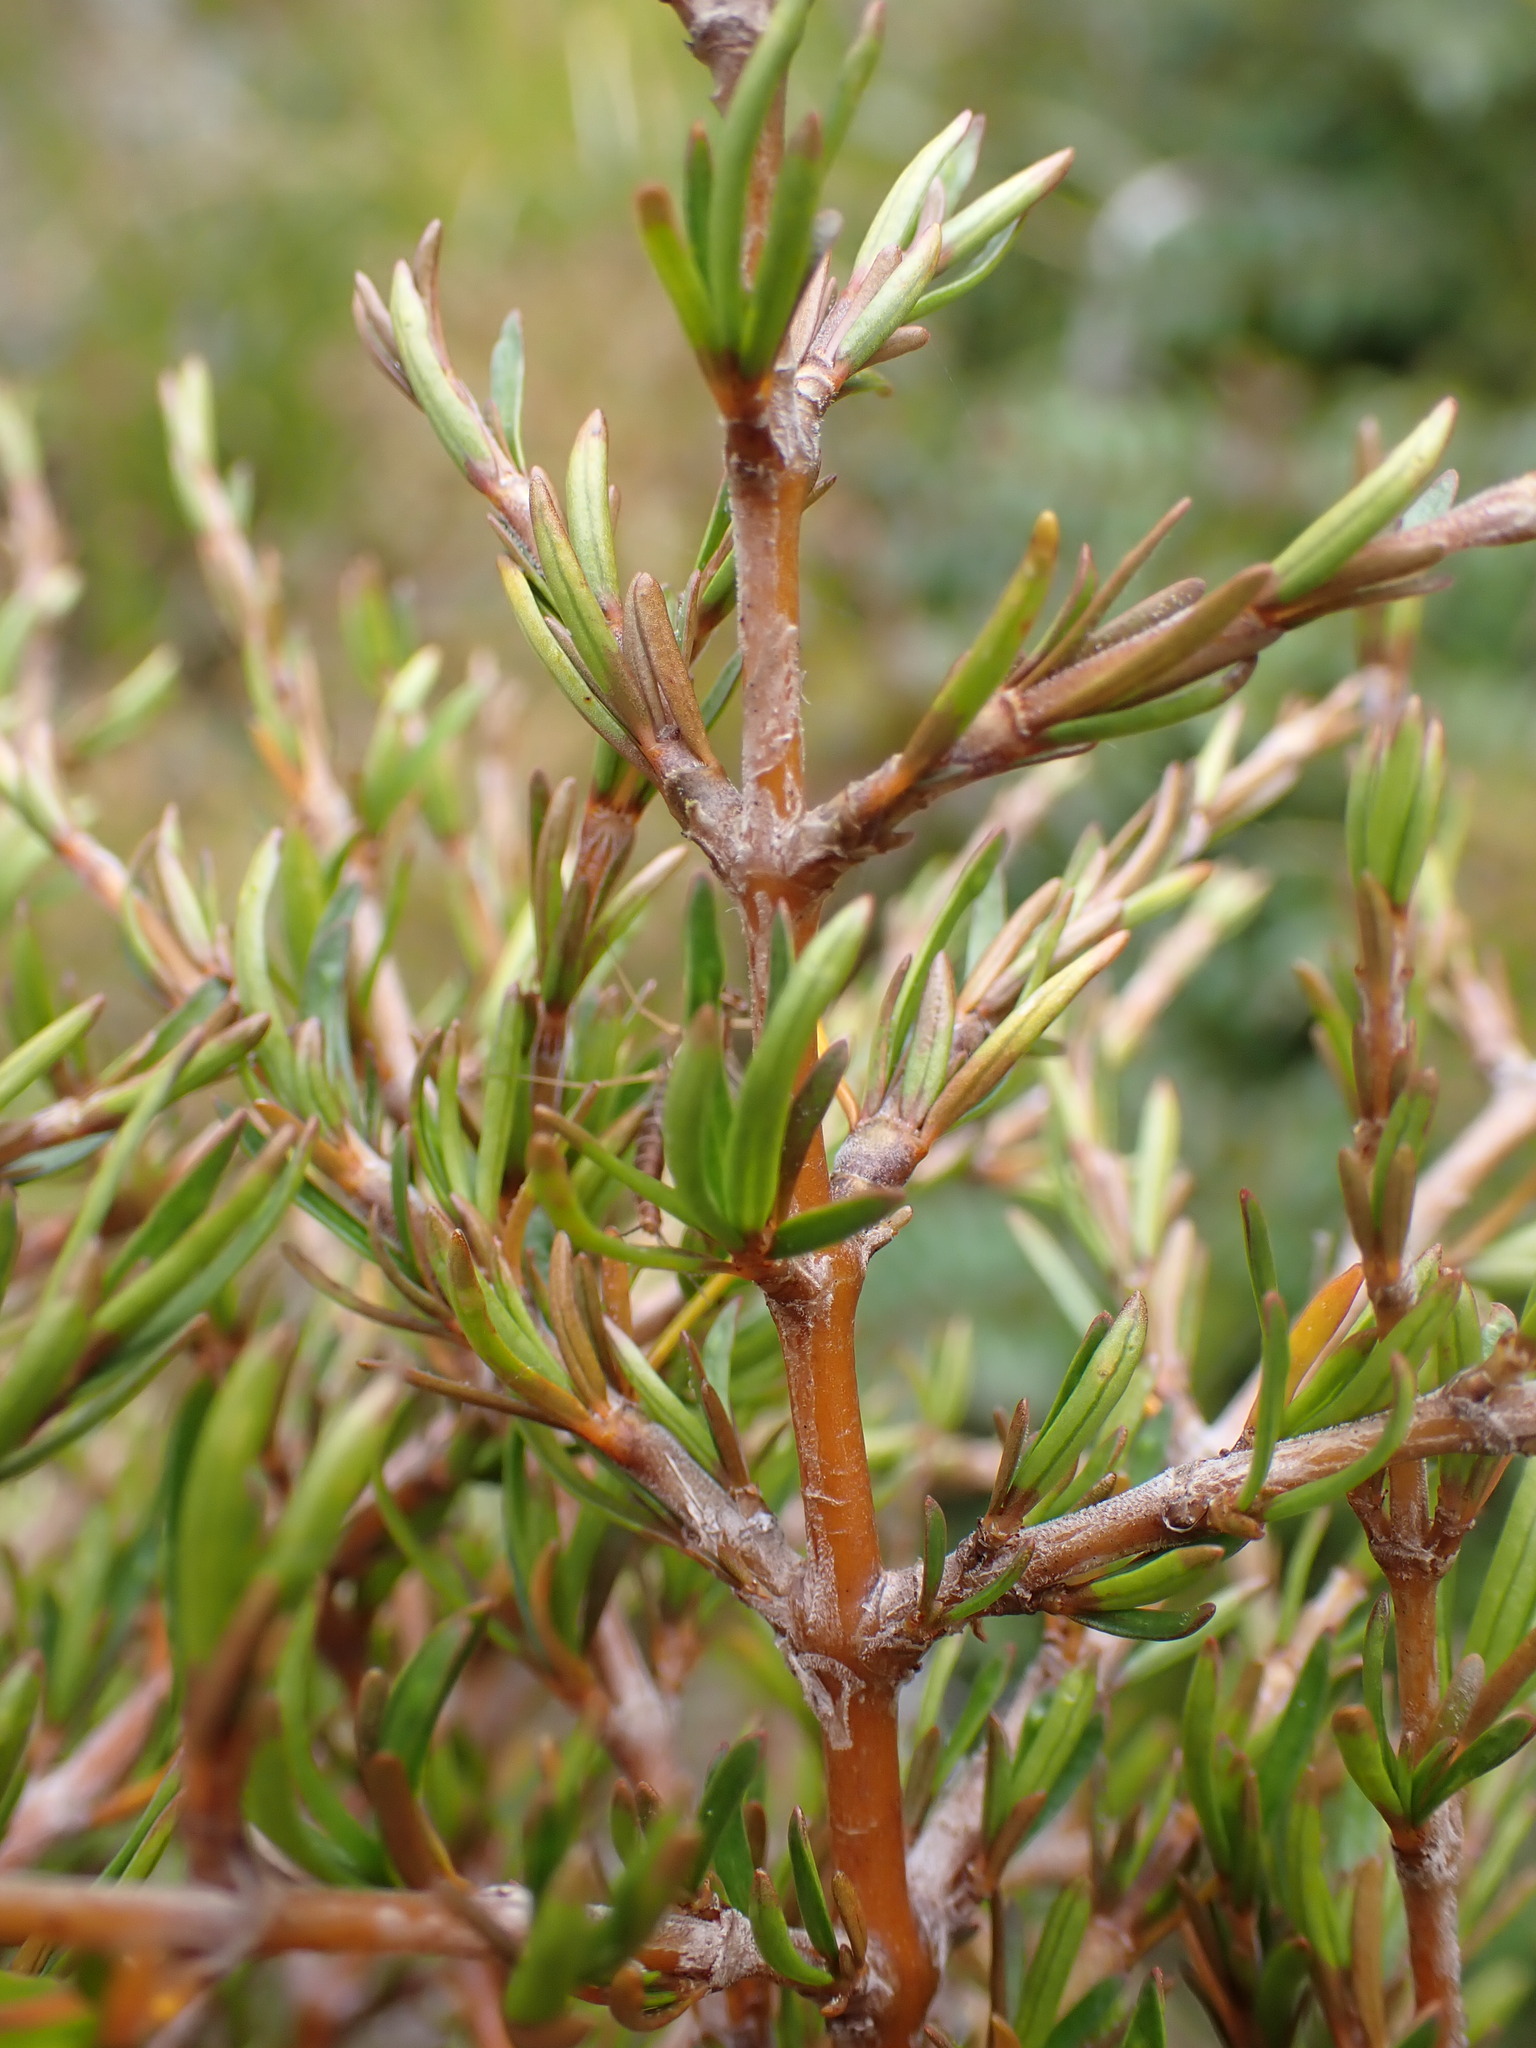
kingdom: Plantae
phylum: Tracheophyta
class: Magnoliopsida
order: Gentianales
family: Rubiaceae
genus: Coprosma
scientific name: Coprosma rugosa
